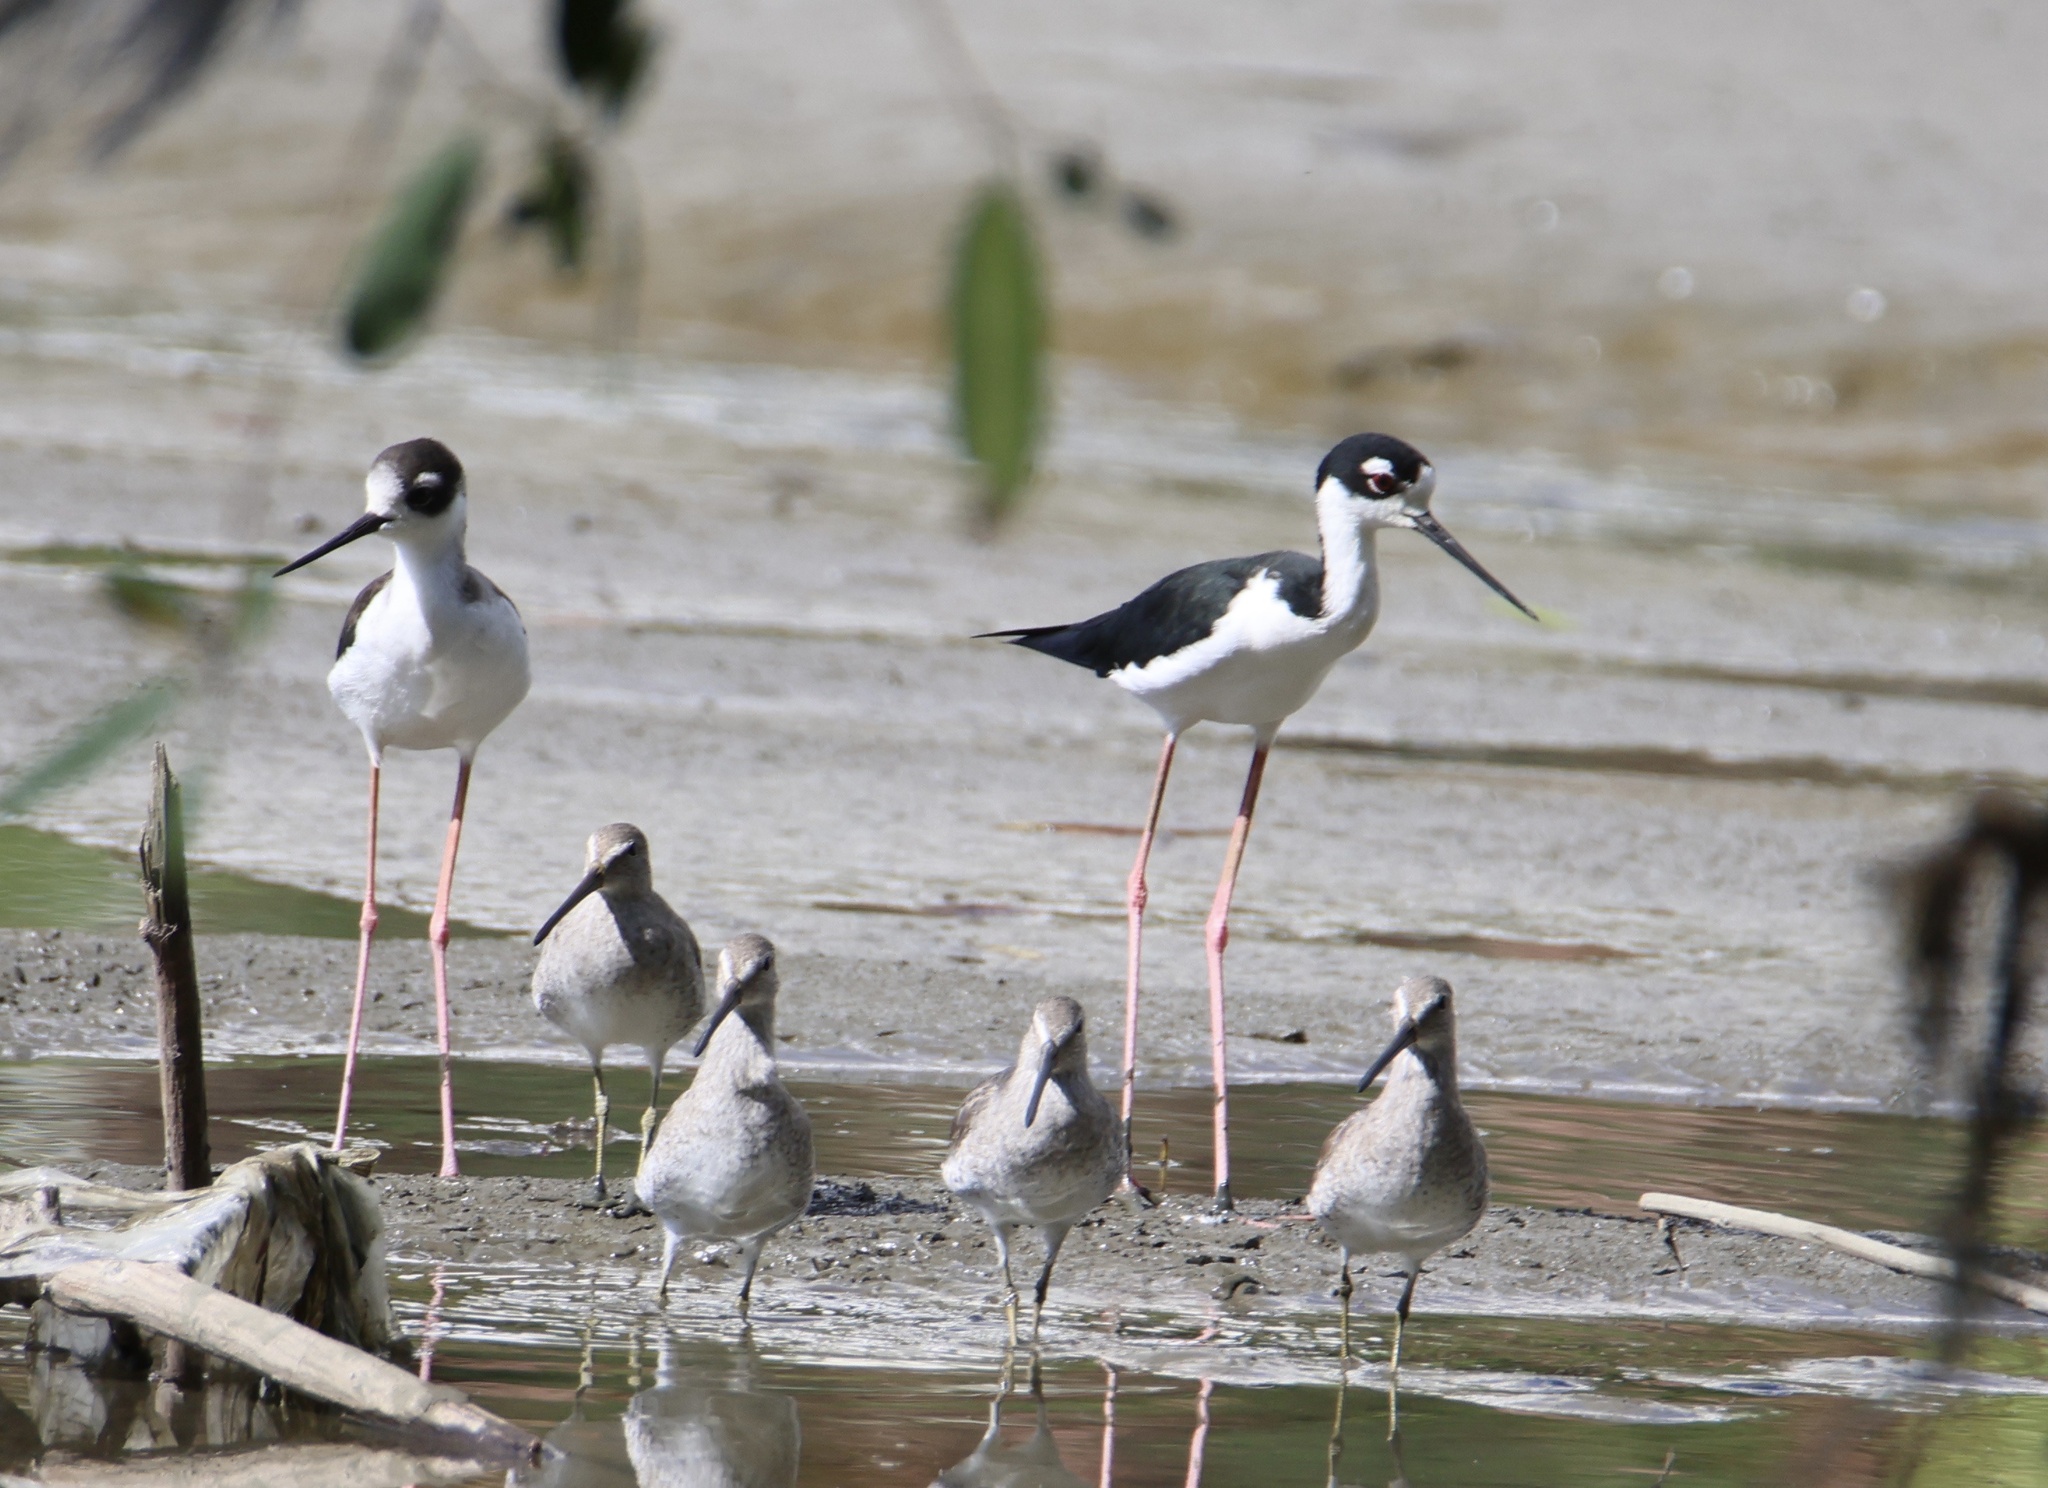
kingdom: Animalia
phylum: Chordata
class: Aves
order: Charadriiformes
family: Recurvirostridae
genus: Himantopus
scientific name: Himantopus mexicanus
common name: Black-necked stilt
